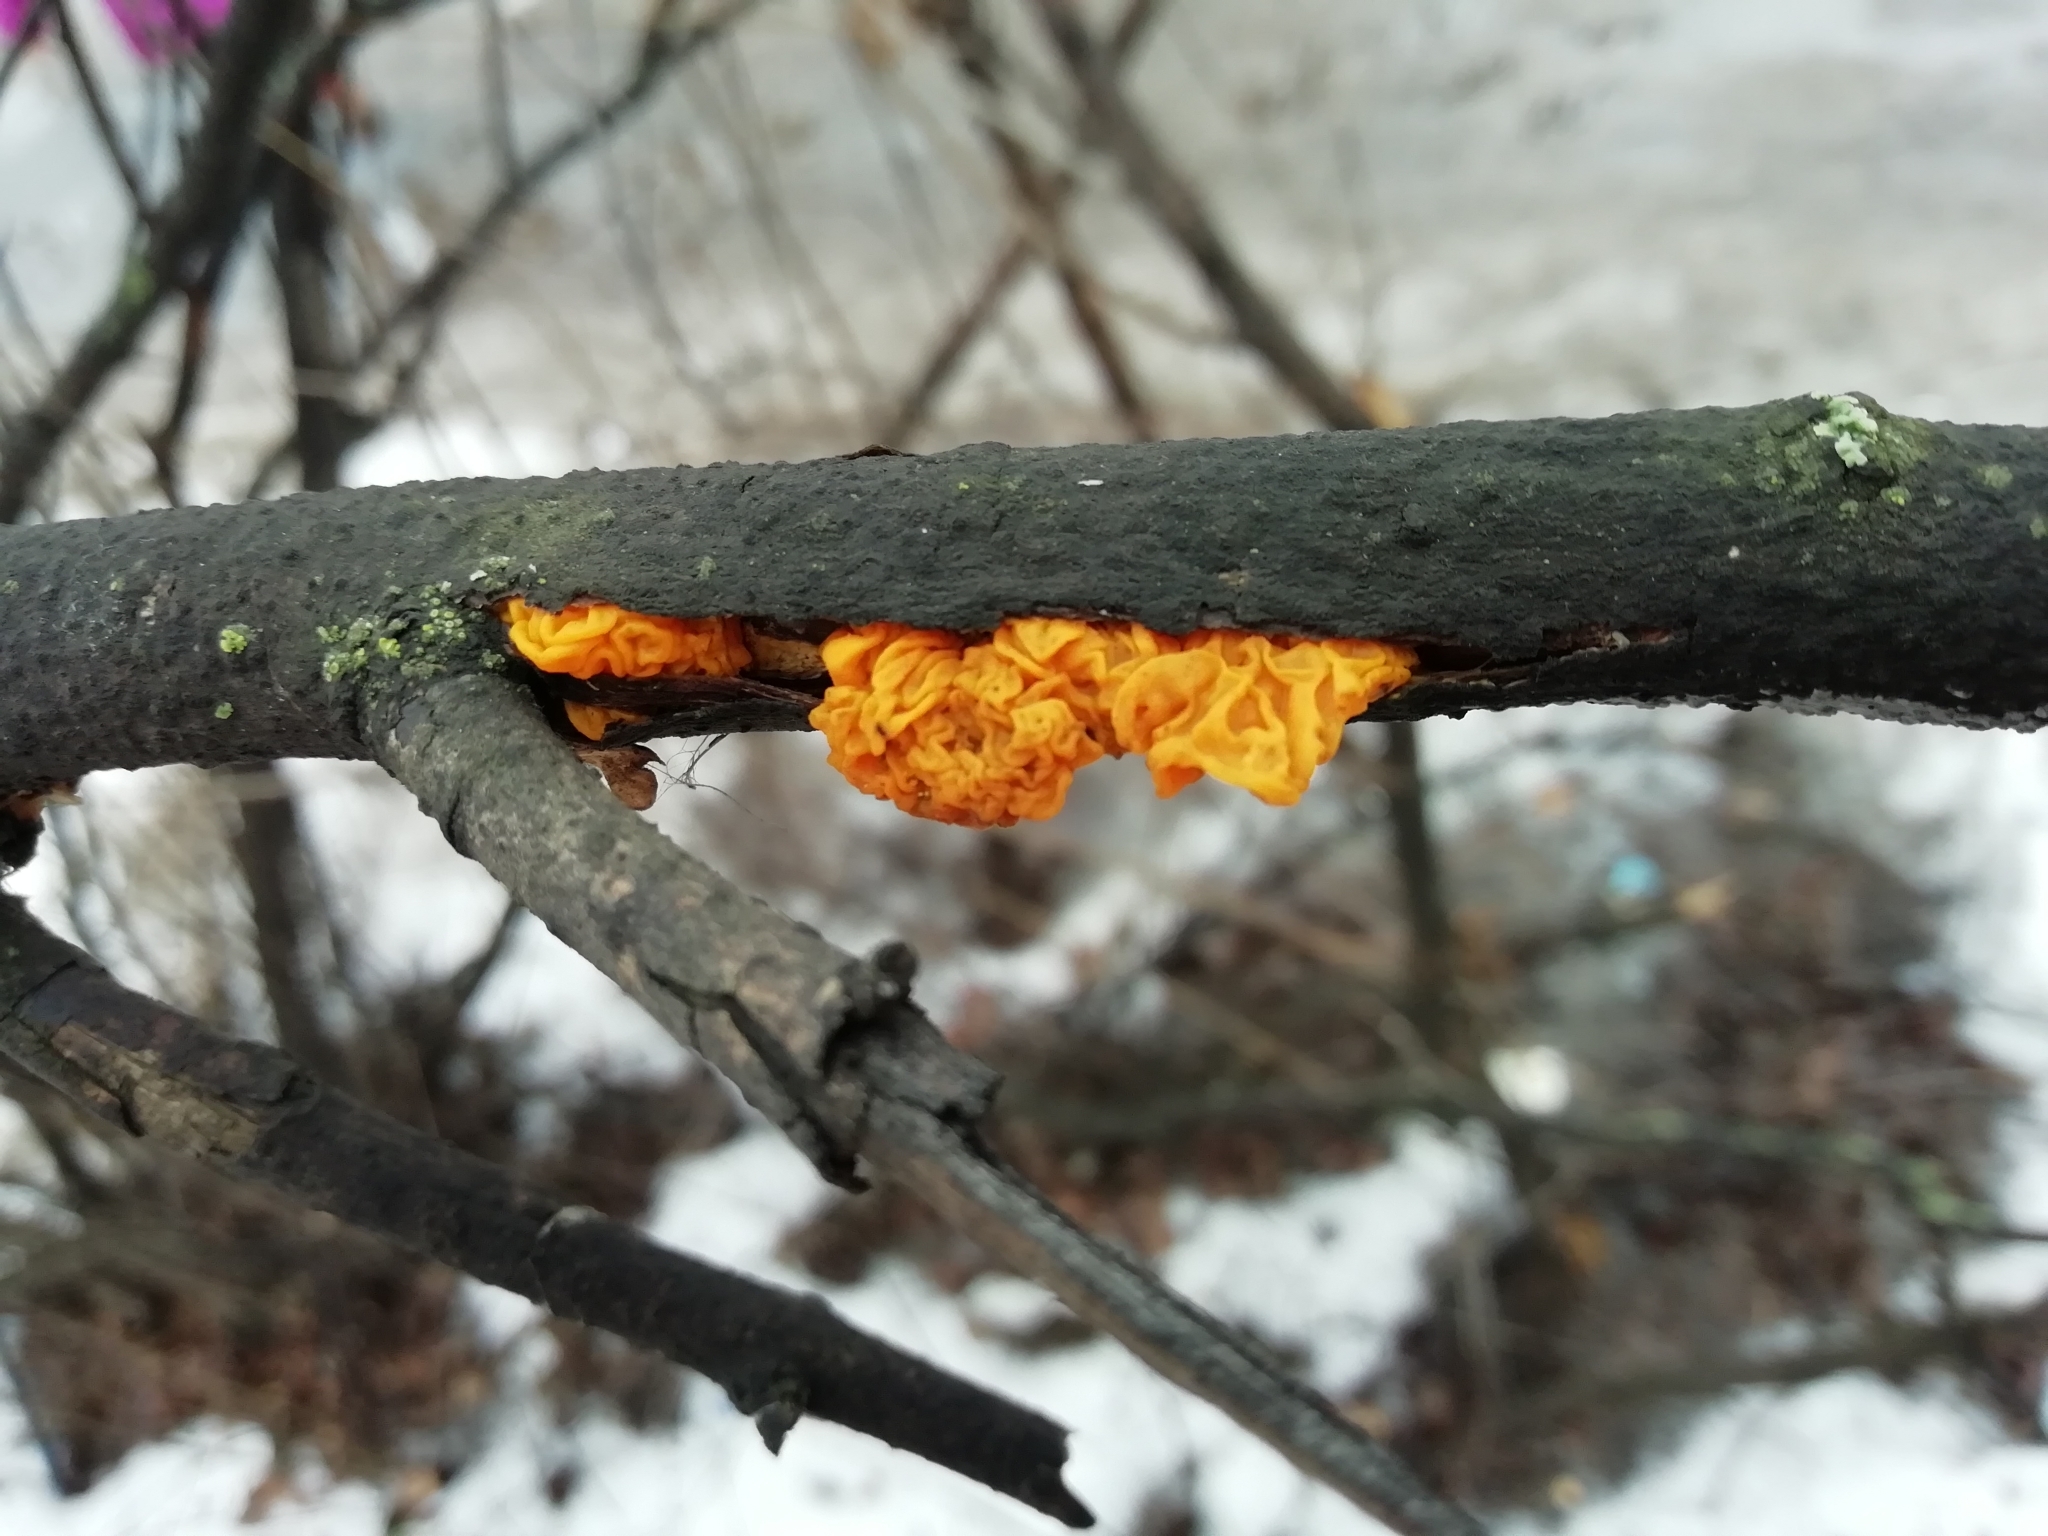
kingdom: Fungi
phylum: Basidiomycota
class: Tremellomycetes
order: Tremellales
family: Tremellaceae
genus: Tremella
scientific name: Tremella mesenterica
